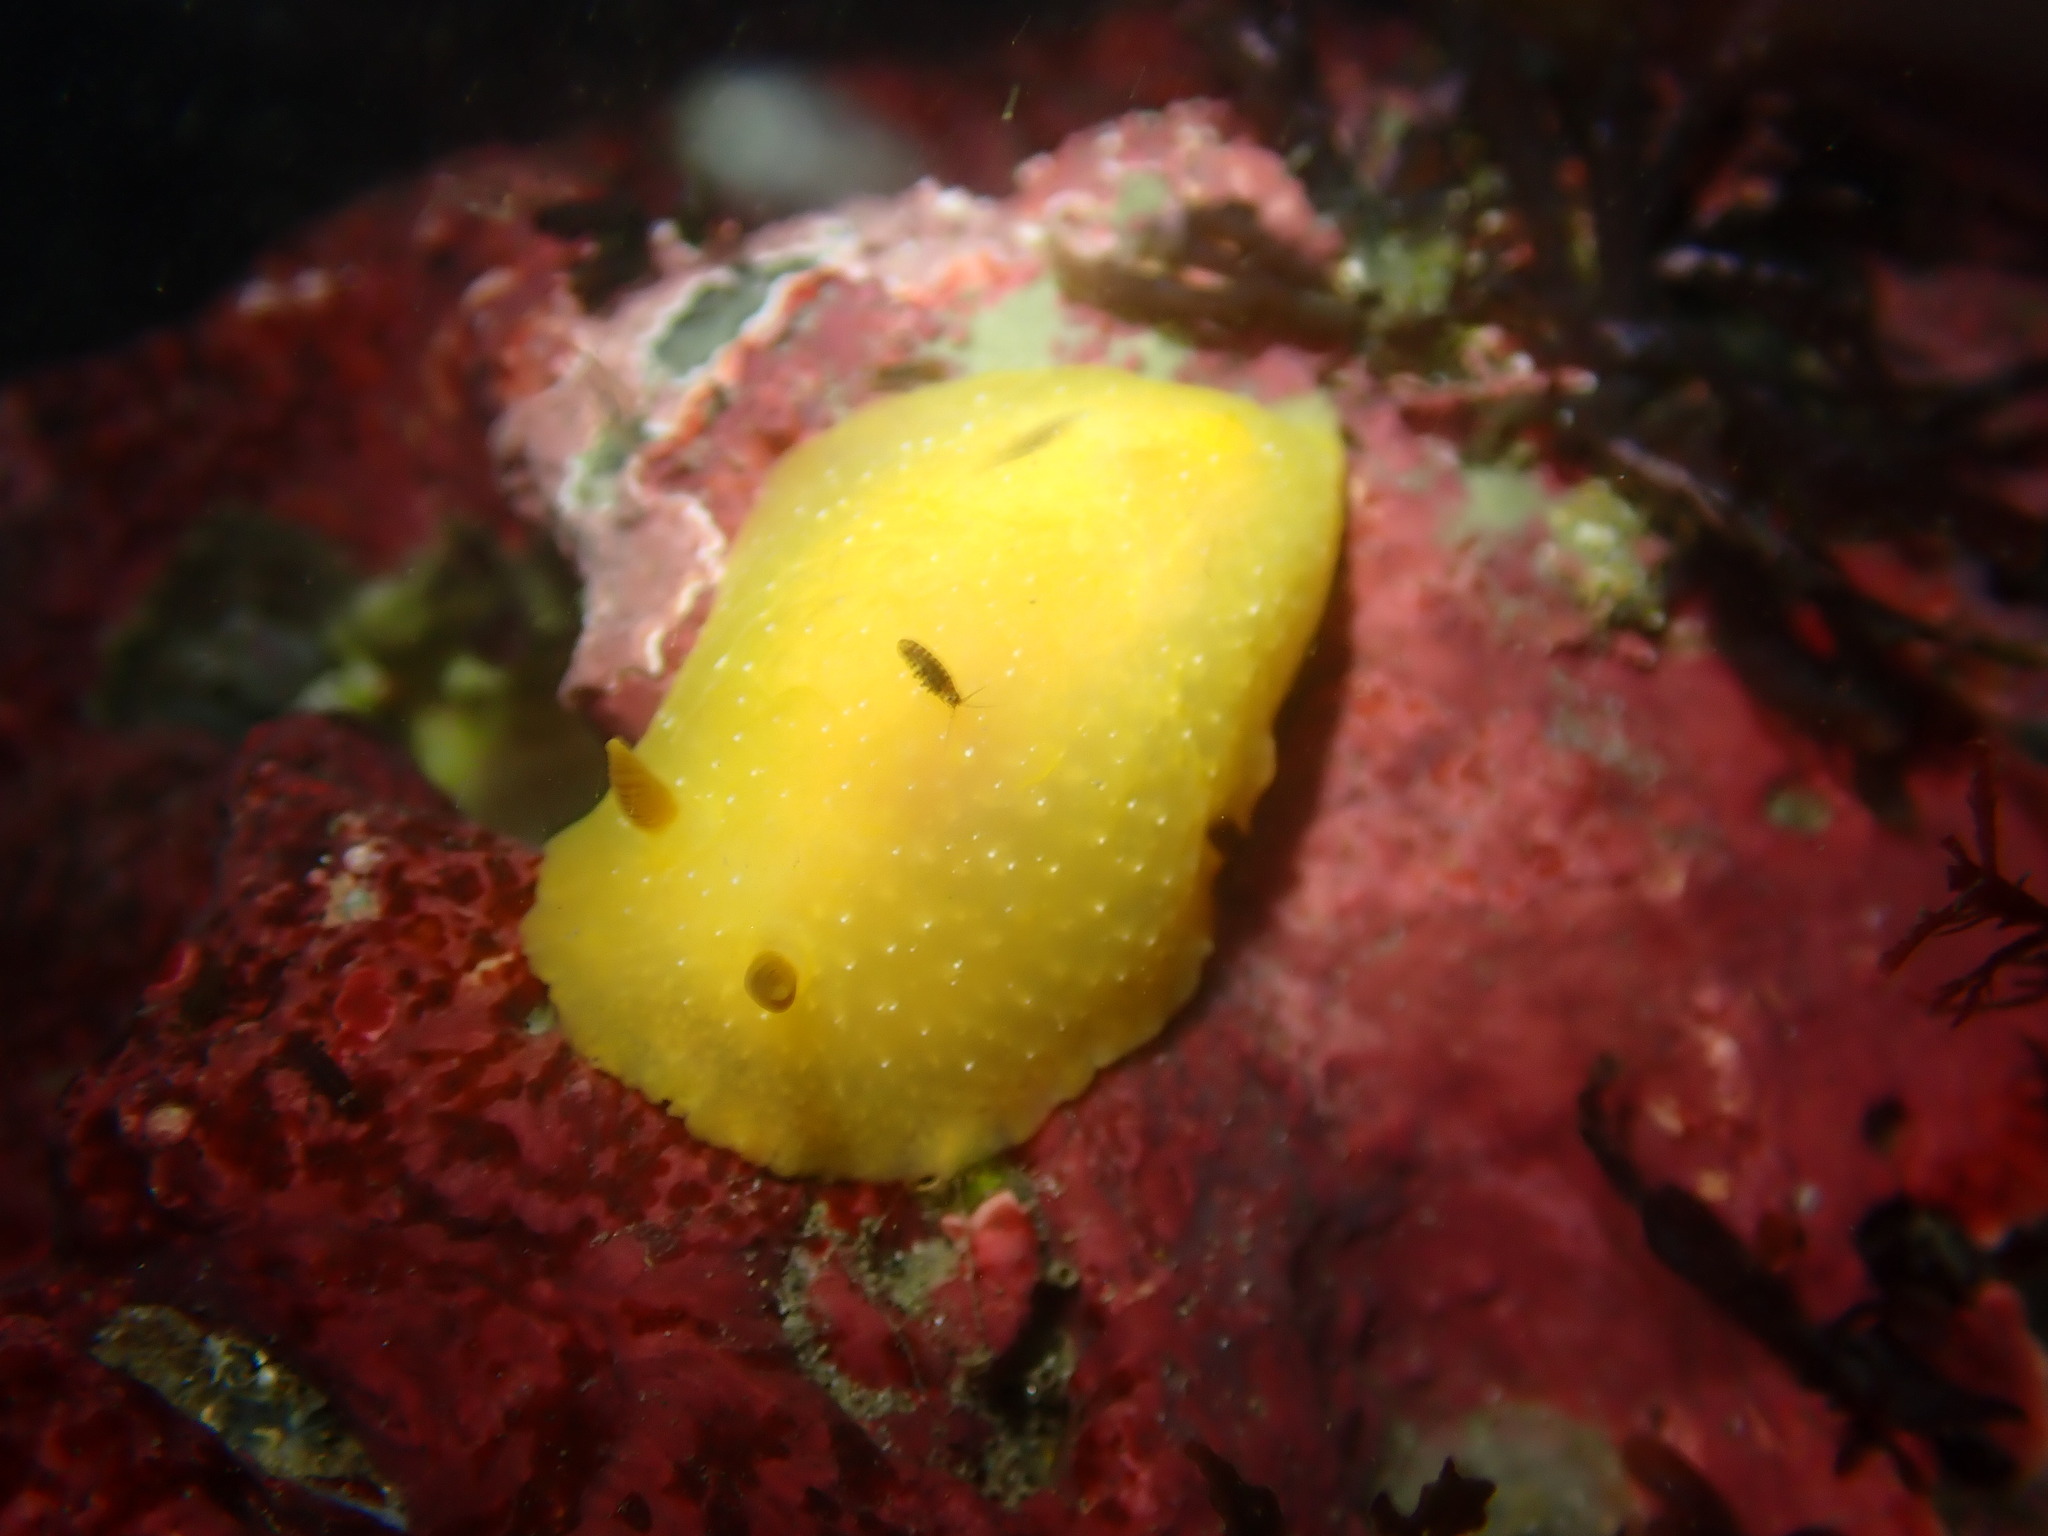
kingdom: Animalia
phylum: Mollusca
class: Gastropoda
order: Nudibranchia
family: Dendrodorididae
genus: Doriopsilla
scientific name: Doriopsilla fulva
